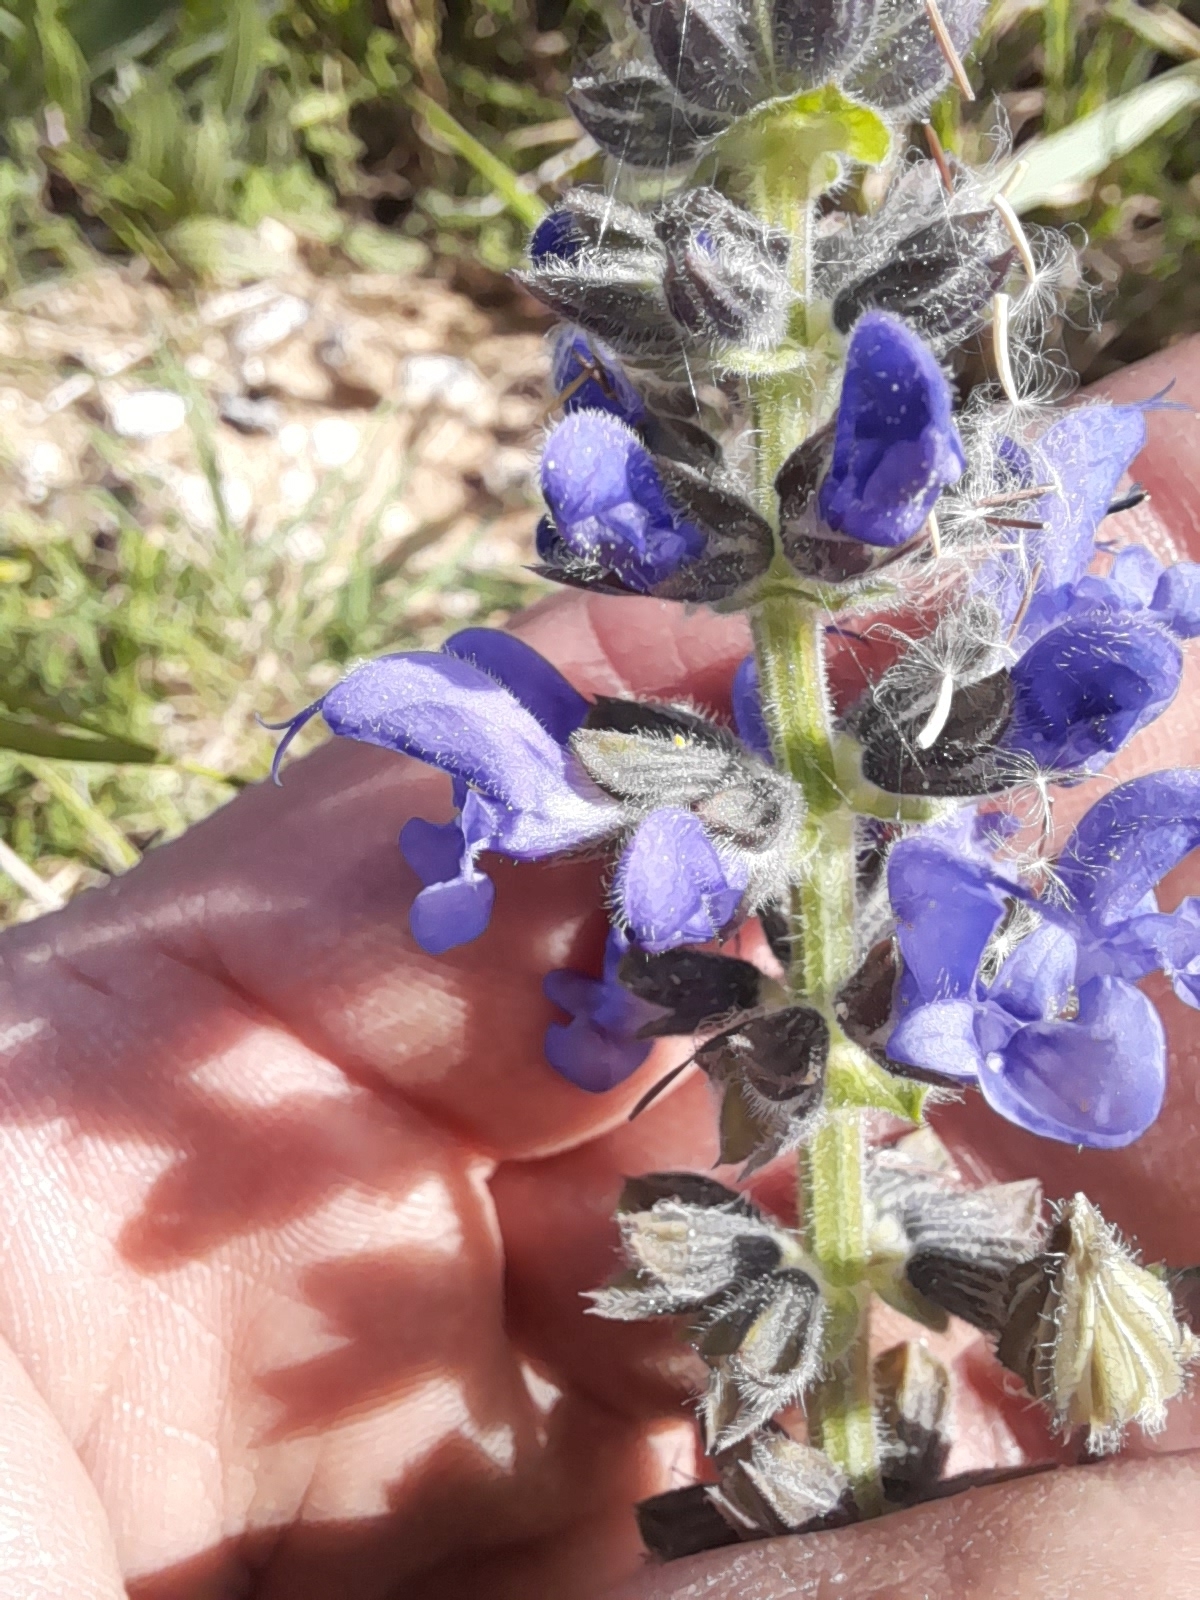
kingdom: Plantae
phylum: Tracheophyta
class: Magnoliopsida
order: Lamiales
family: Lamiaceae
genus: Salvia
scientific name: Salvia verbenaca
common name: Wild clary
